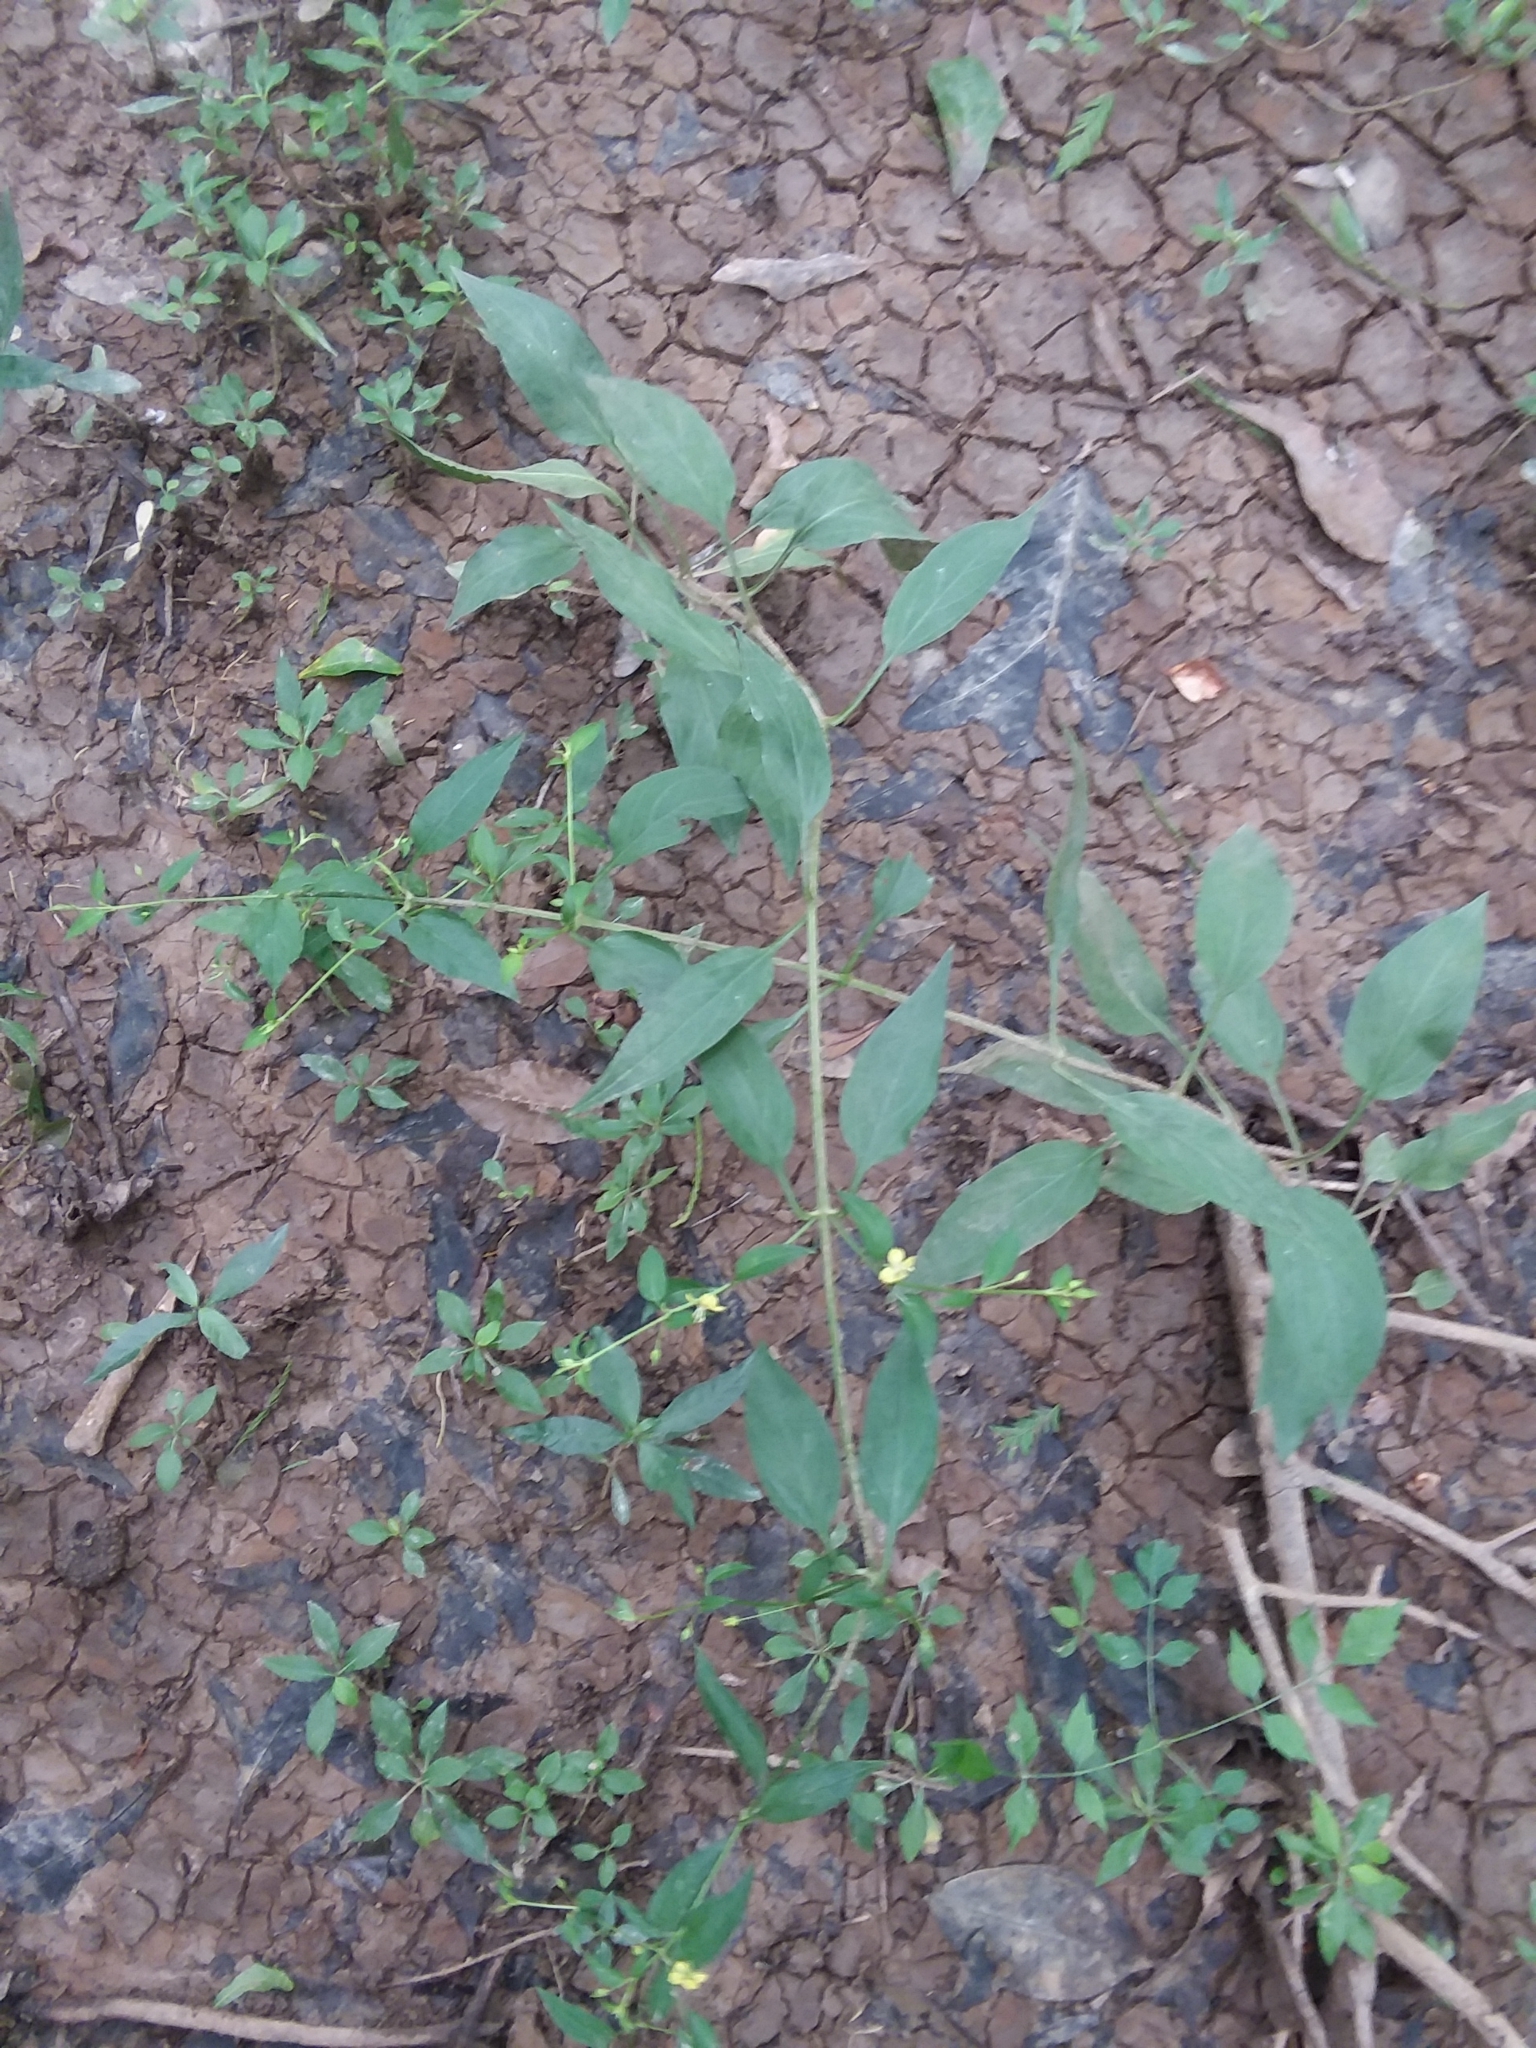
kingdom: Plantae
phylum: Tracheophyta
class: Magnoliopsida
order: Ericales
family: Primulaceae
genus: Lysimachia
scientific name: Lysimachia radicans
